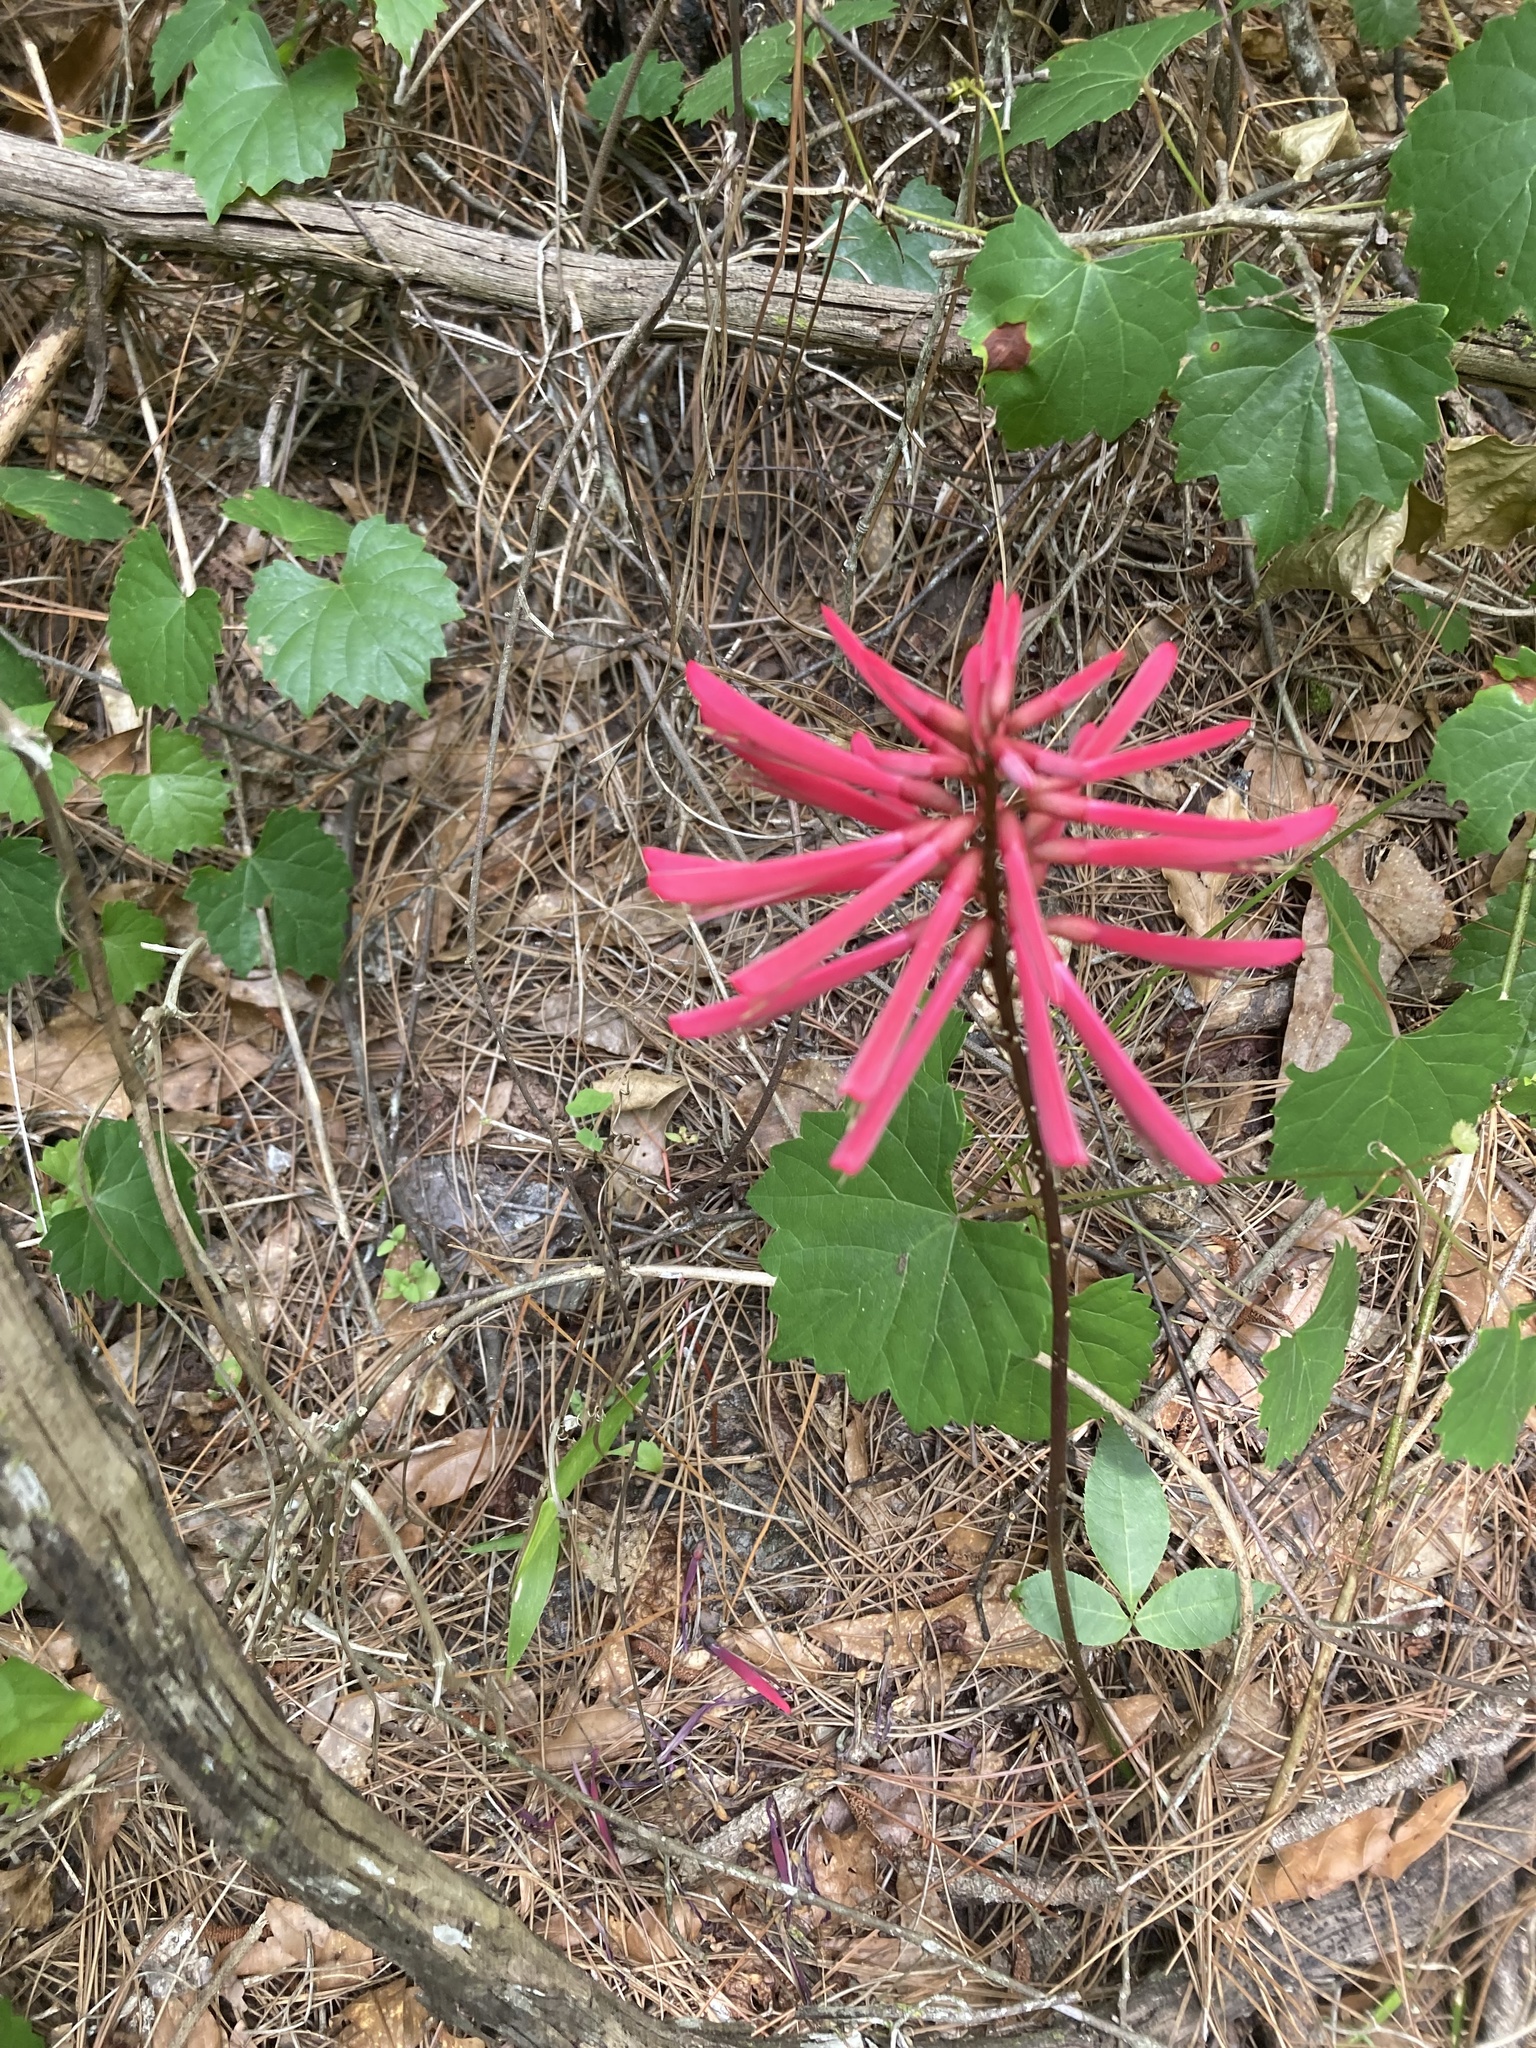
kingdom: Plantae
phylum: Tracheophyta
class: Magnoliopsida
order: Fabales
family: Fabaceae
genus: Erythrina
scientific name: Erythrina herbacea
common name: Coral-bean
